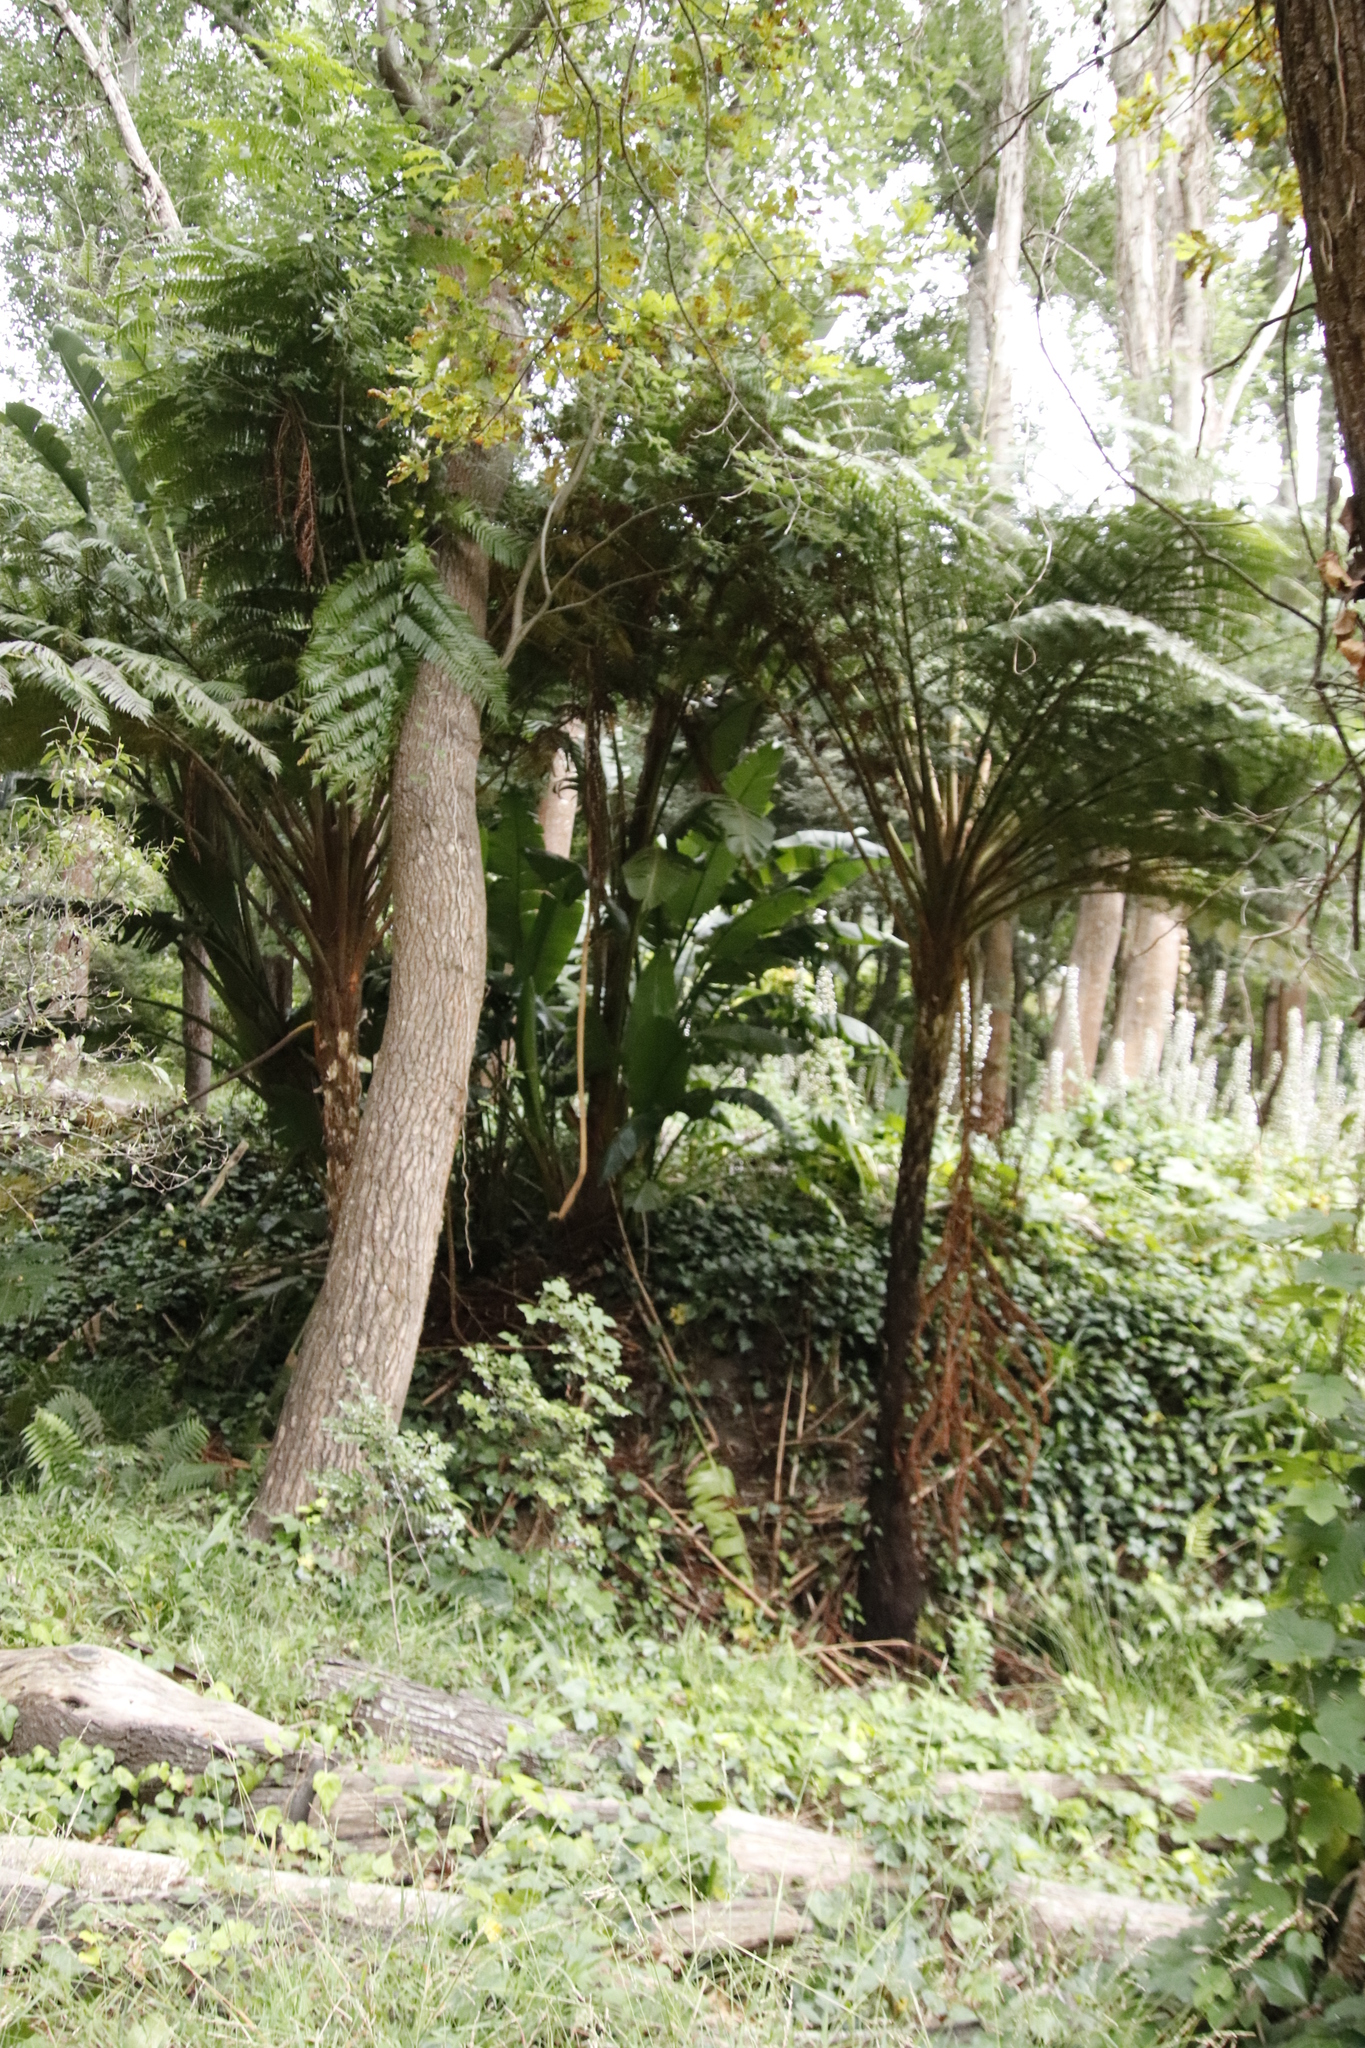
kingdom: Plantae
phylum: Tracheophyta
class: Polypodiopsida
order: Cyatheales
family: Cyatheaceae
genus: Sphaeropteris
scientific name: Sphaeropteris cooperi
